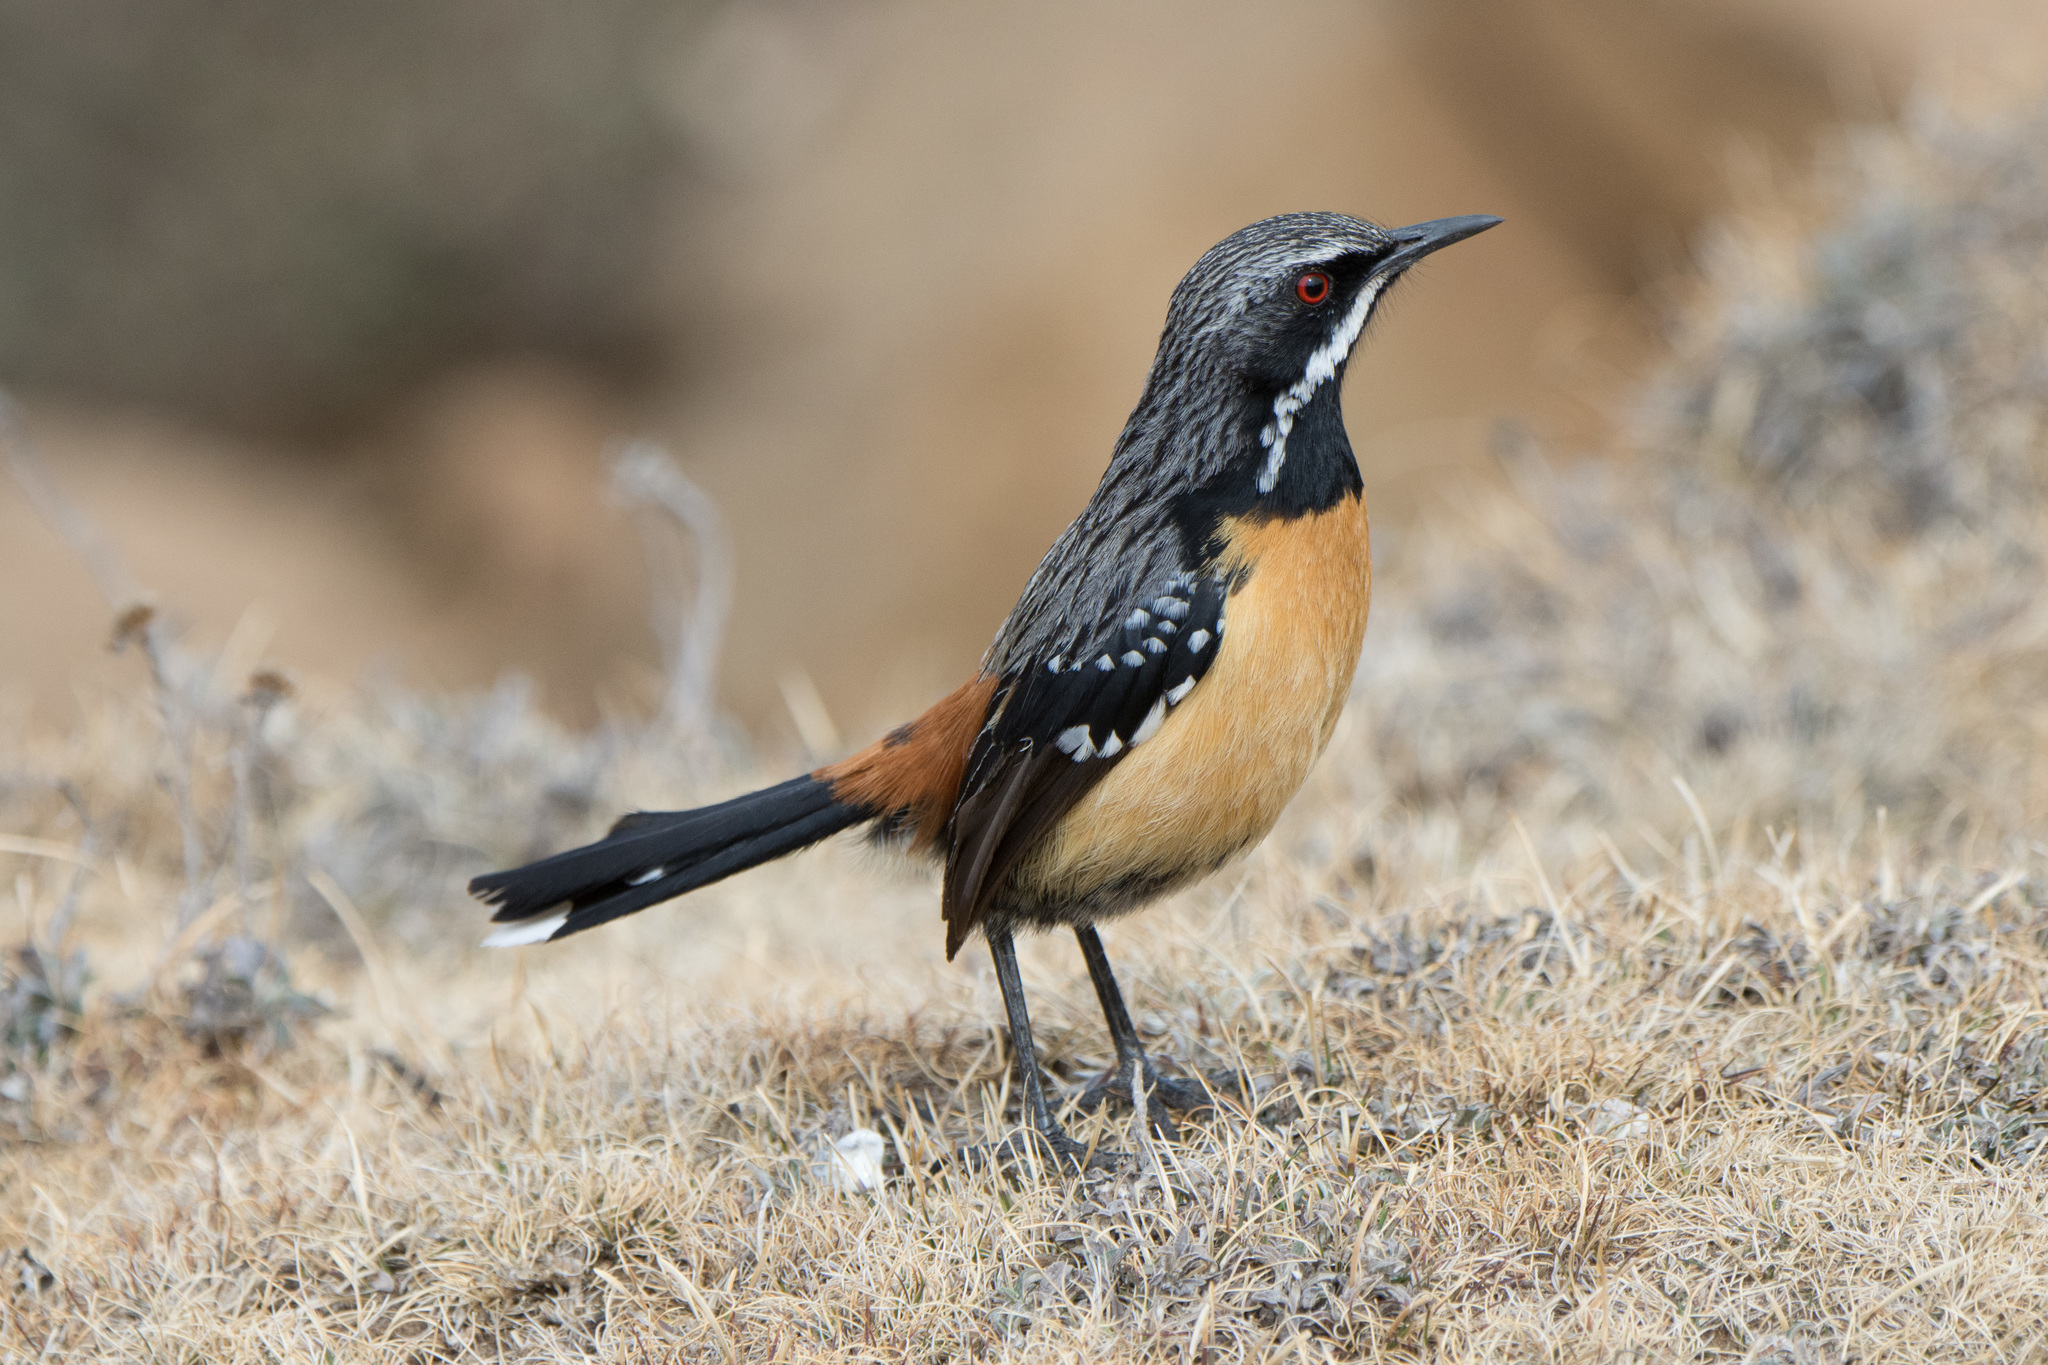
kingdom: Animalia
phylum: Chordata
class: Aves
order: Passeriformes
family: Chaetopidae
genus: Chaetops
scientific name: Chaetops aurantius
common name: Drakensberg rockjumper
